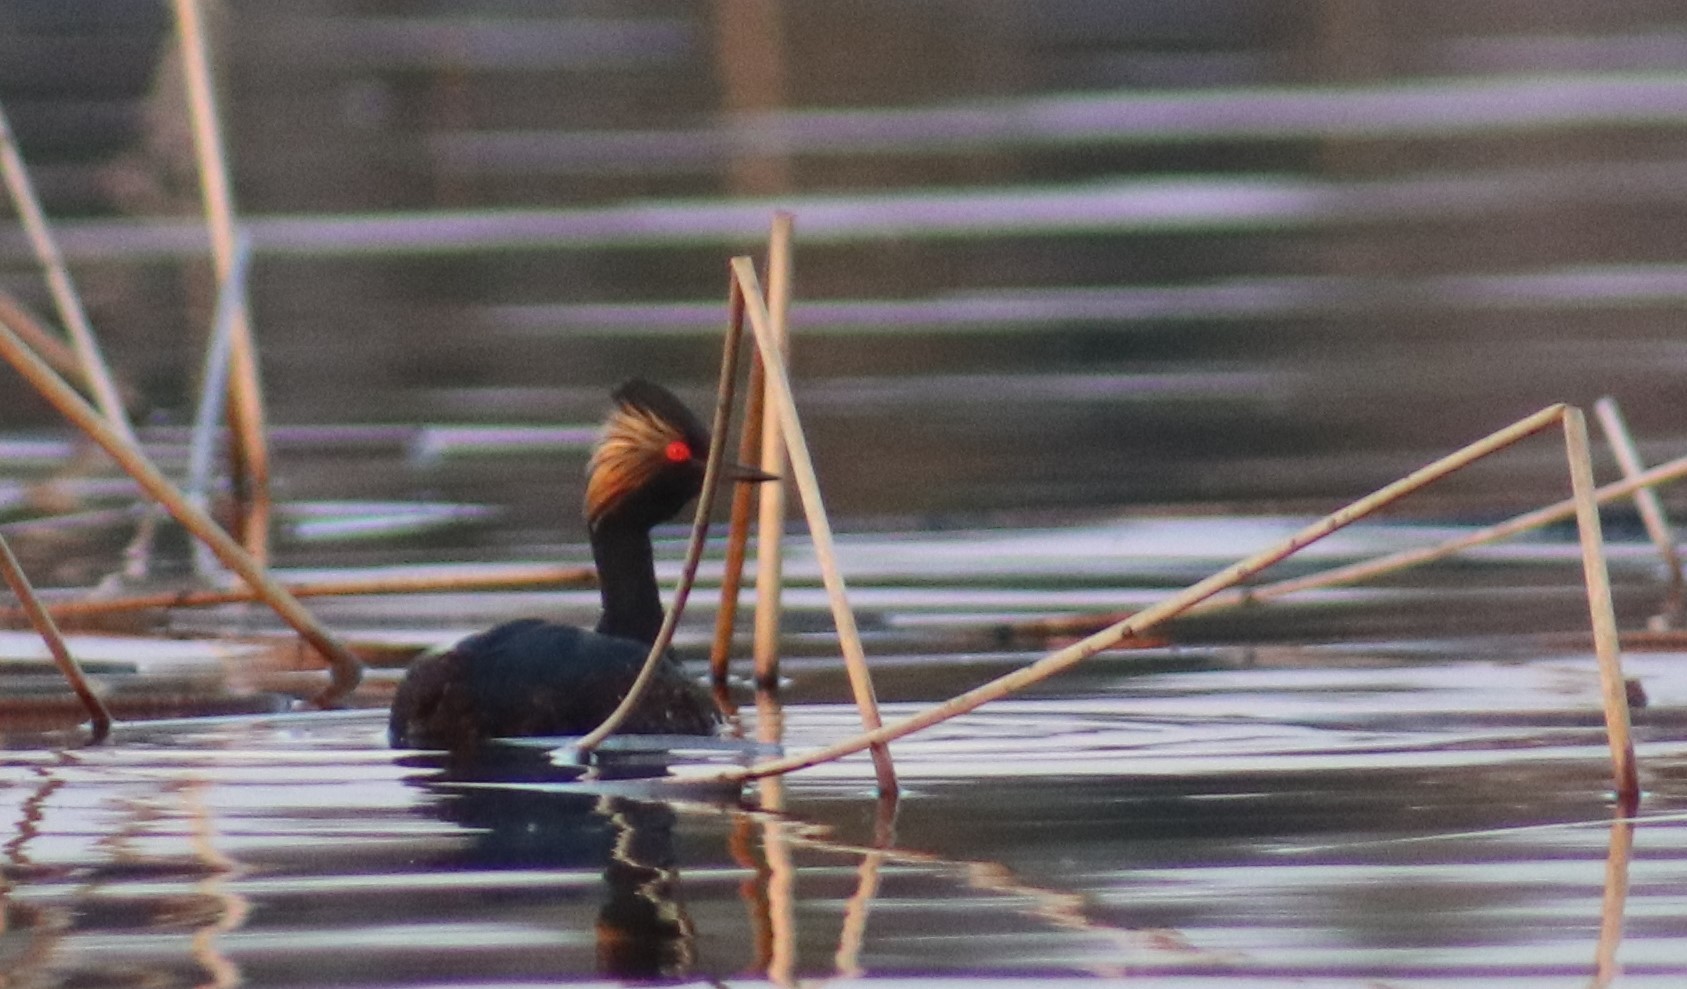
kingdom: Animalia
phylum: Chordata
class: Aves
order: Podicipediformes
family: Podicipedidae
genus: Podiceps
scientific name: Podiceps nigricollis
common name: Black-necked grebe
